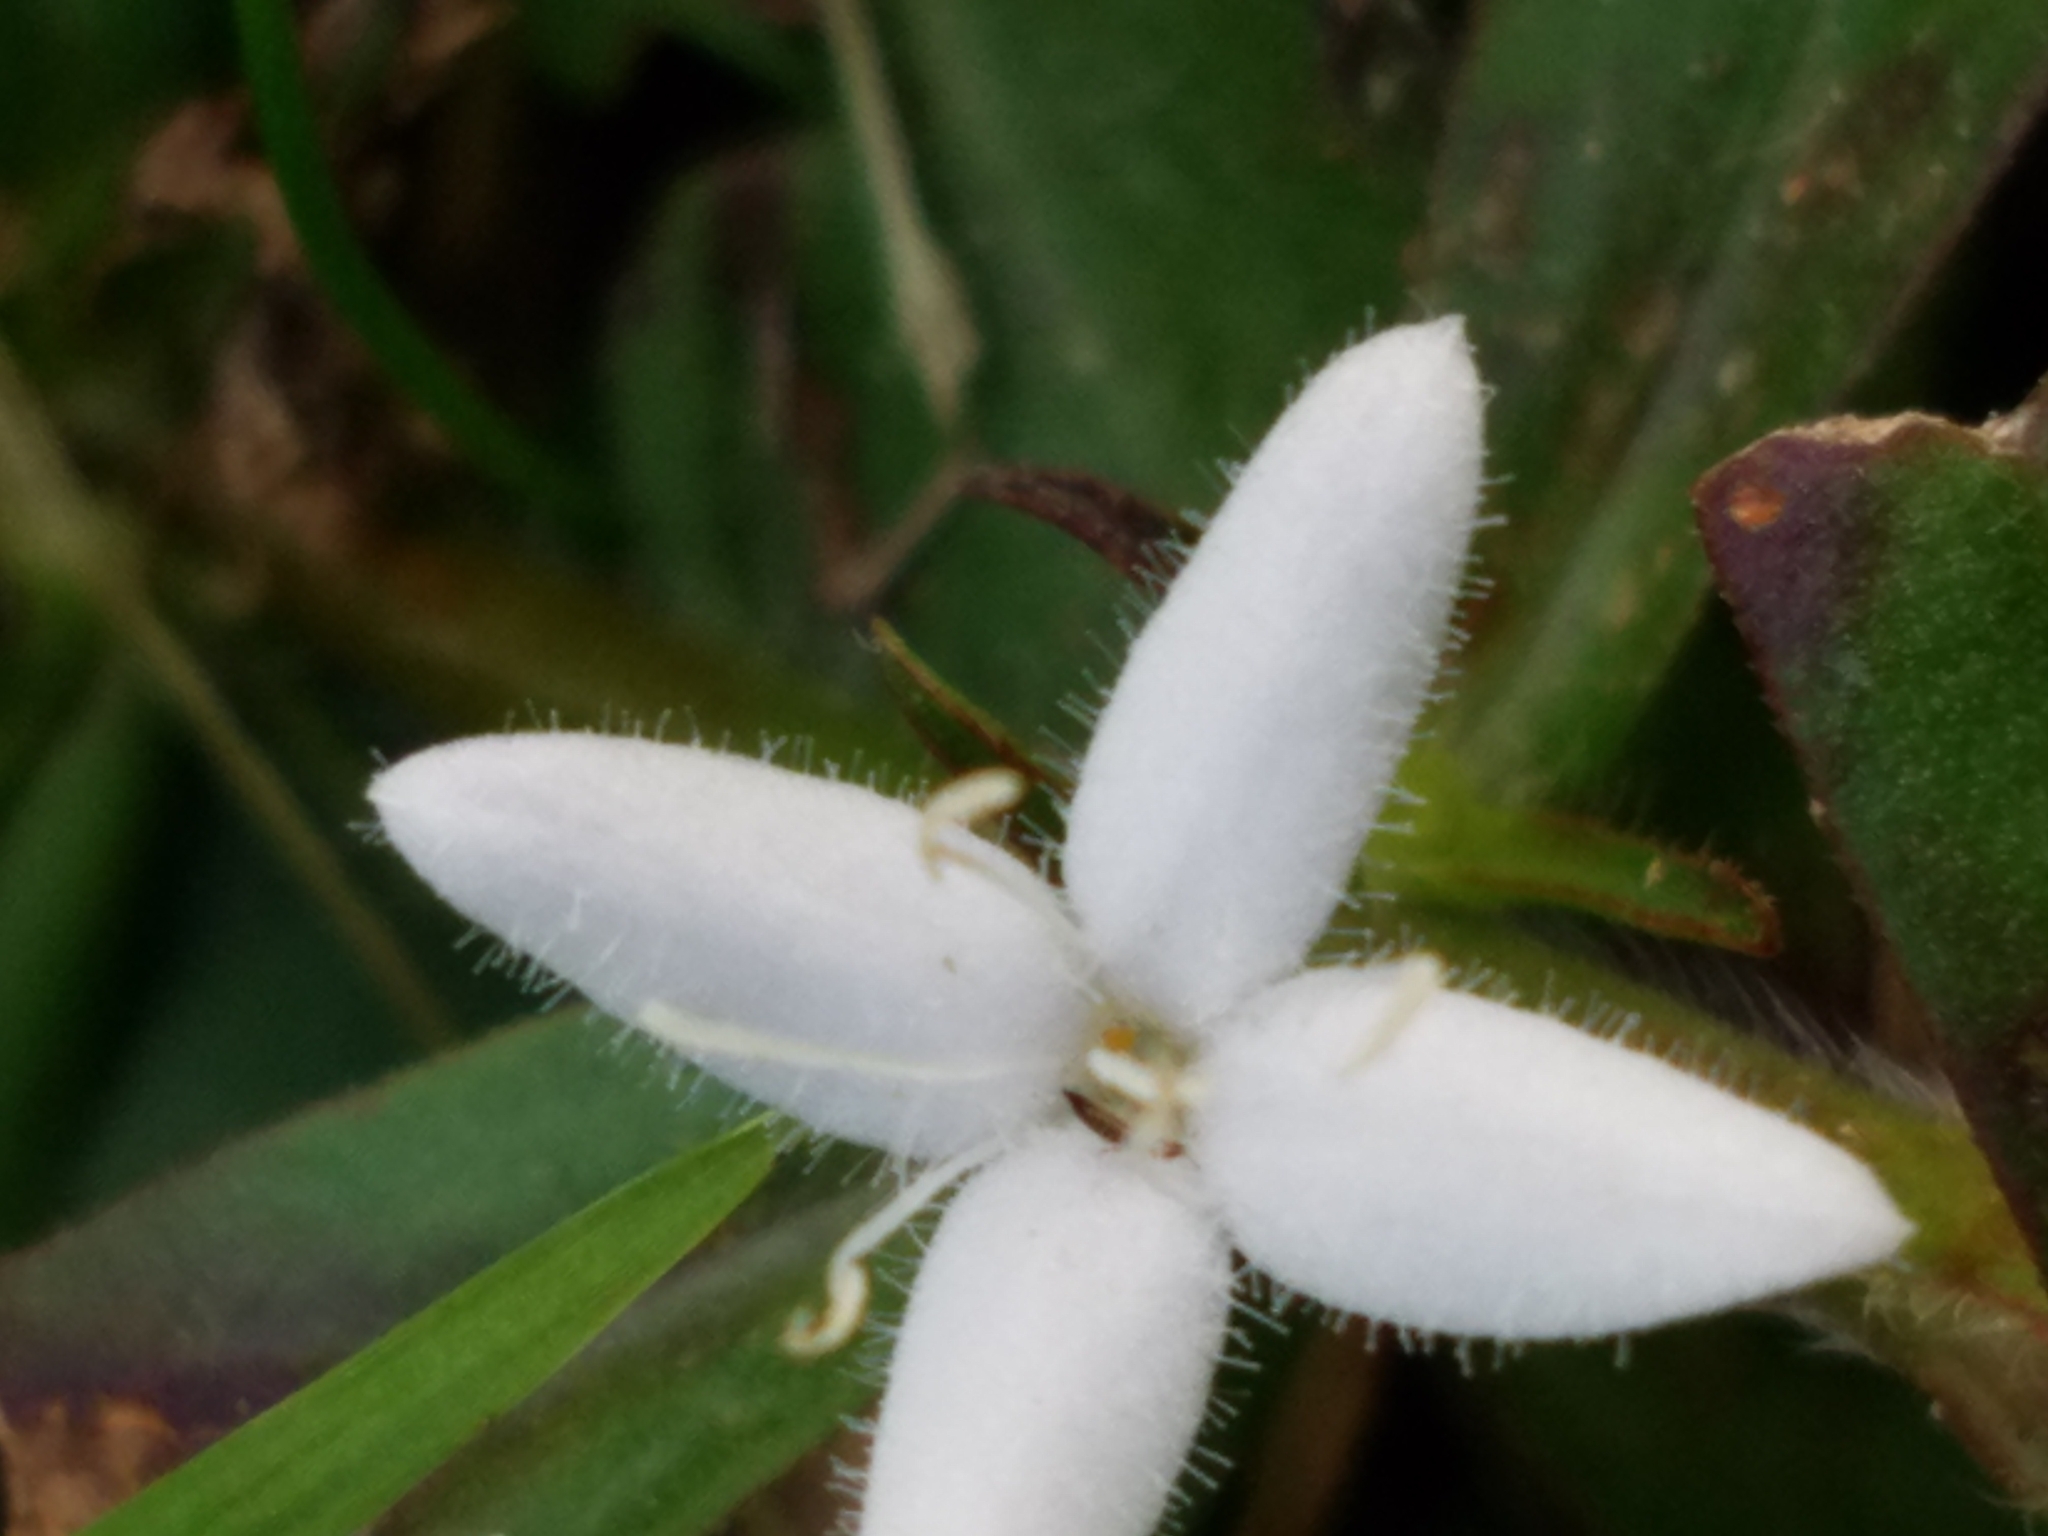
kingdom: Plantae
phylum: Tracheophyta
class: Magnoliopsida
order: Gentianales
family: Rubiaceae
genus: Diodia
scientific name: Diodia virginiana
